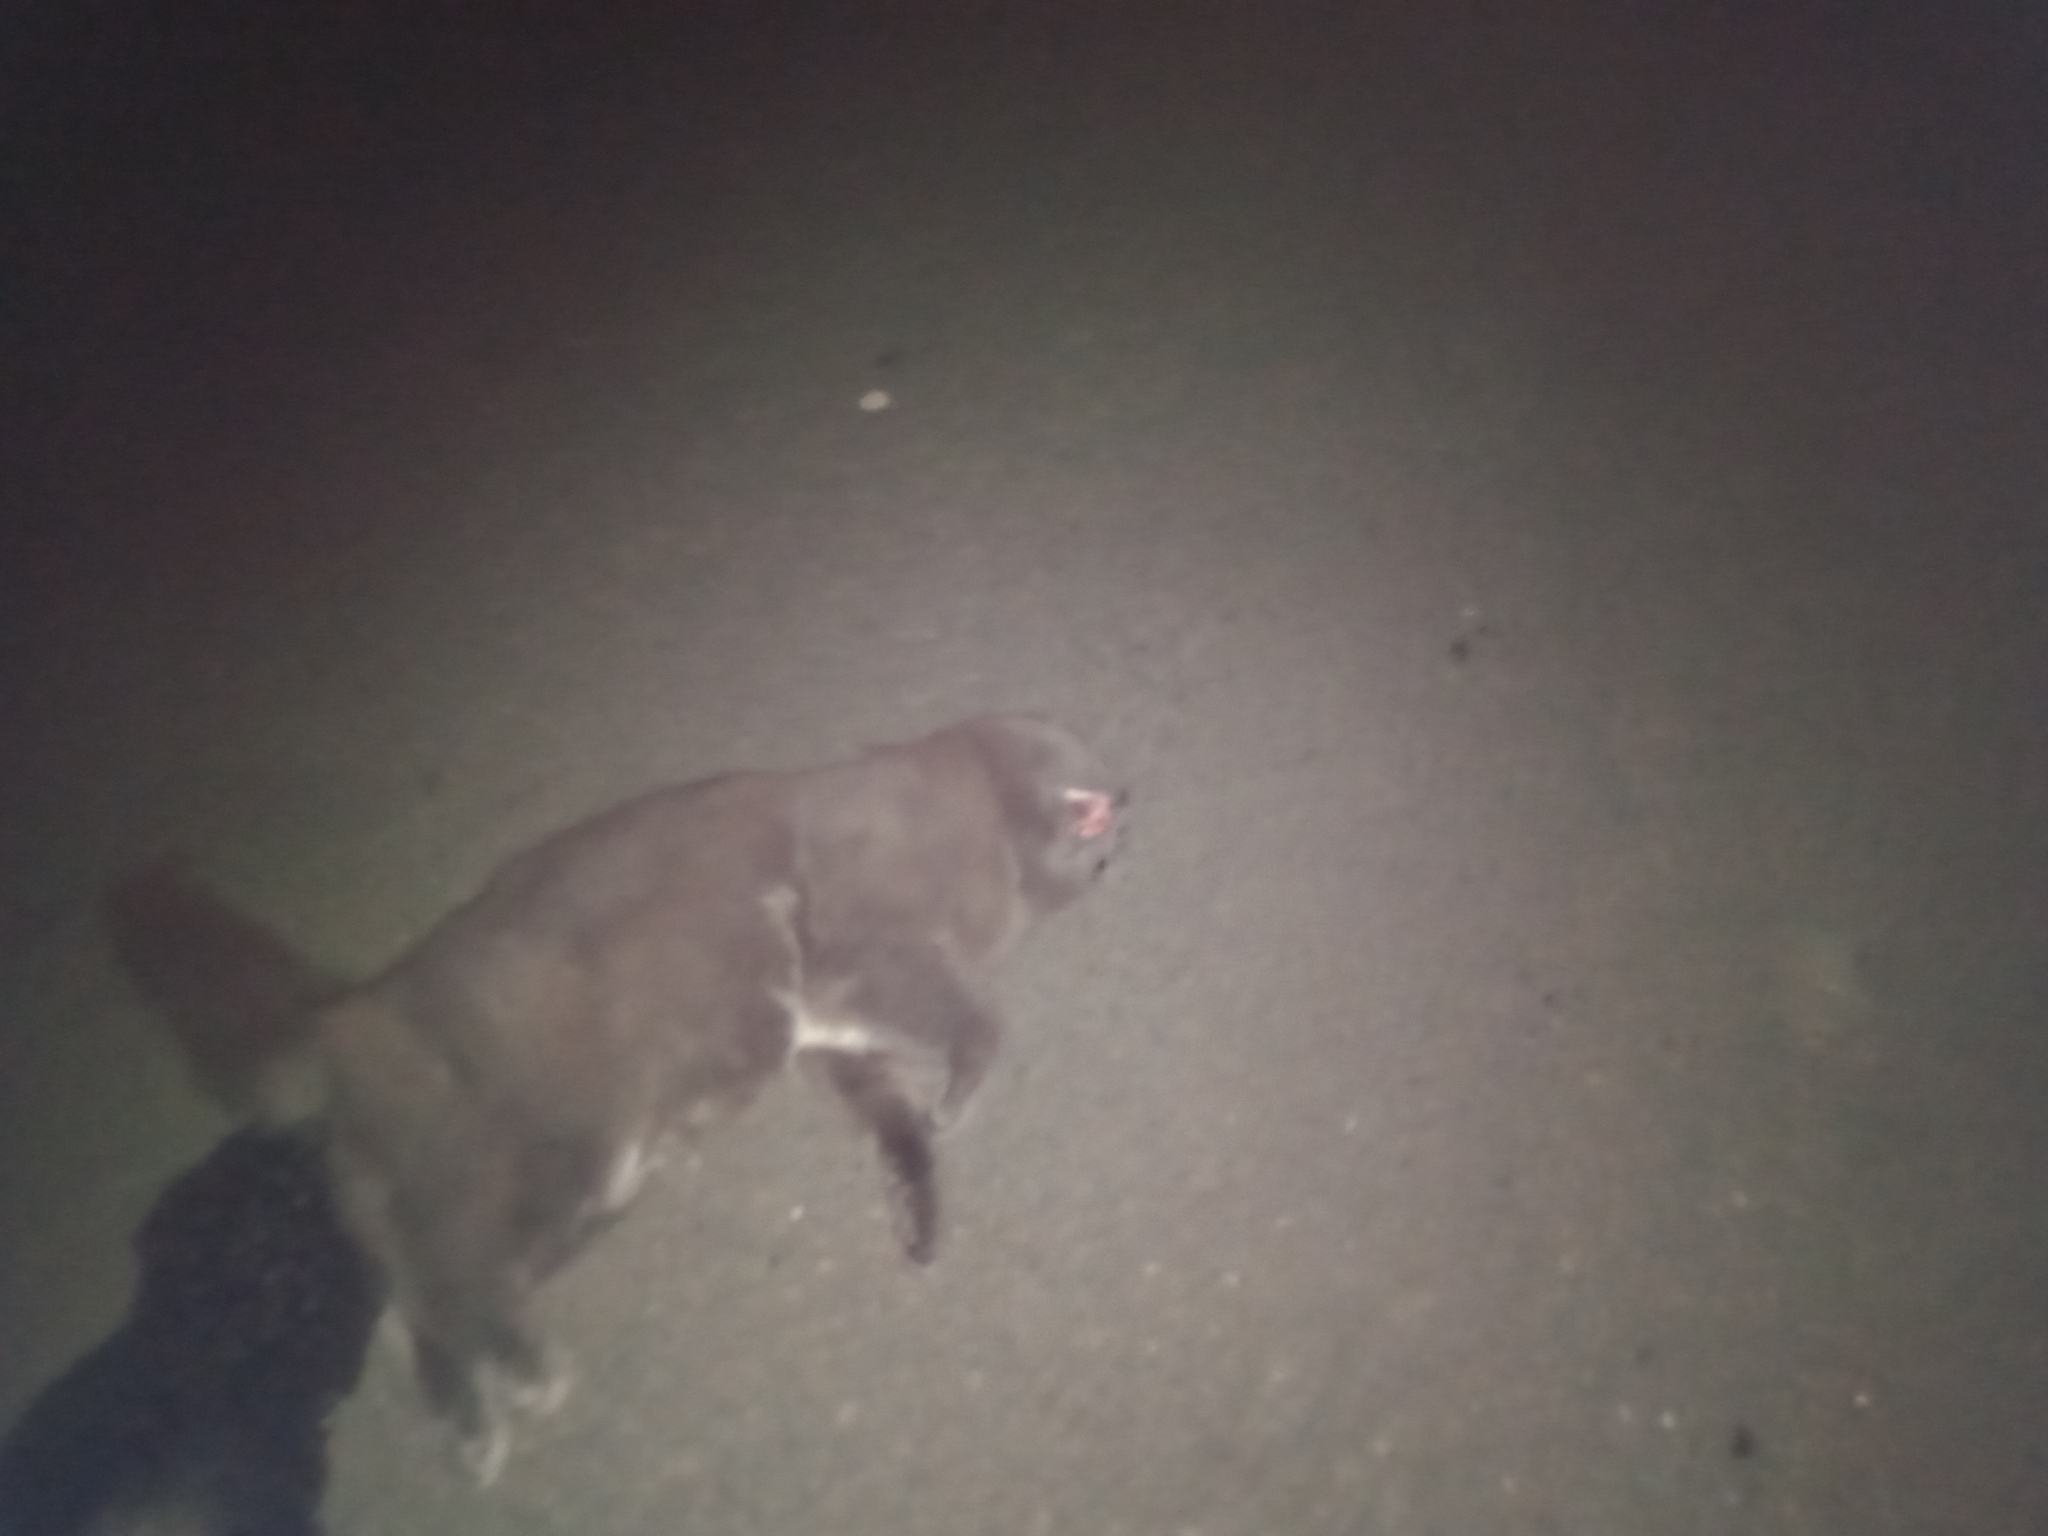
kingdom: Animalia
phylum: Chordata
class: Mammalia
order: Carnivora
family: Felidae
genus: Felis
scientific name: Felis catus
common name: Domestic cat
